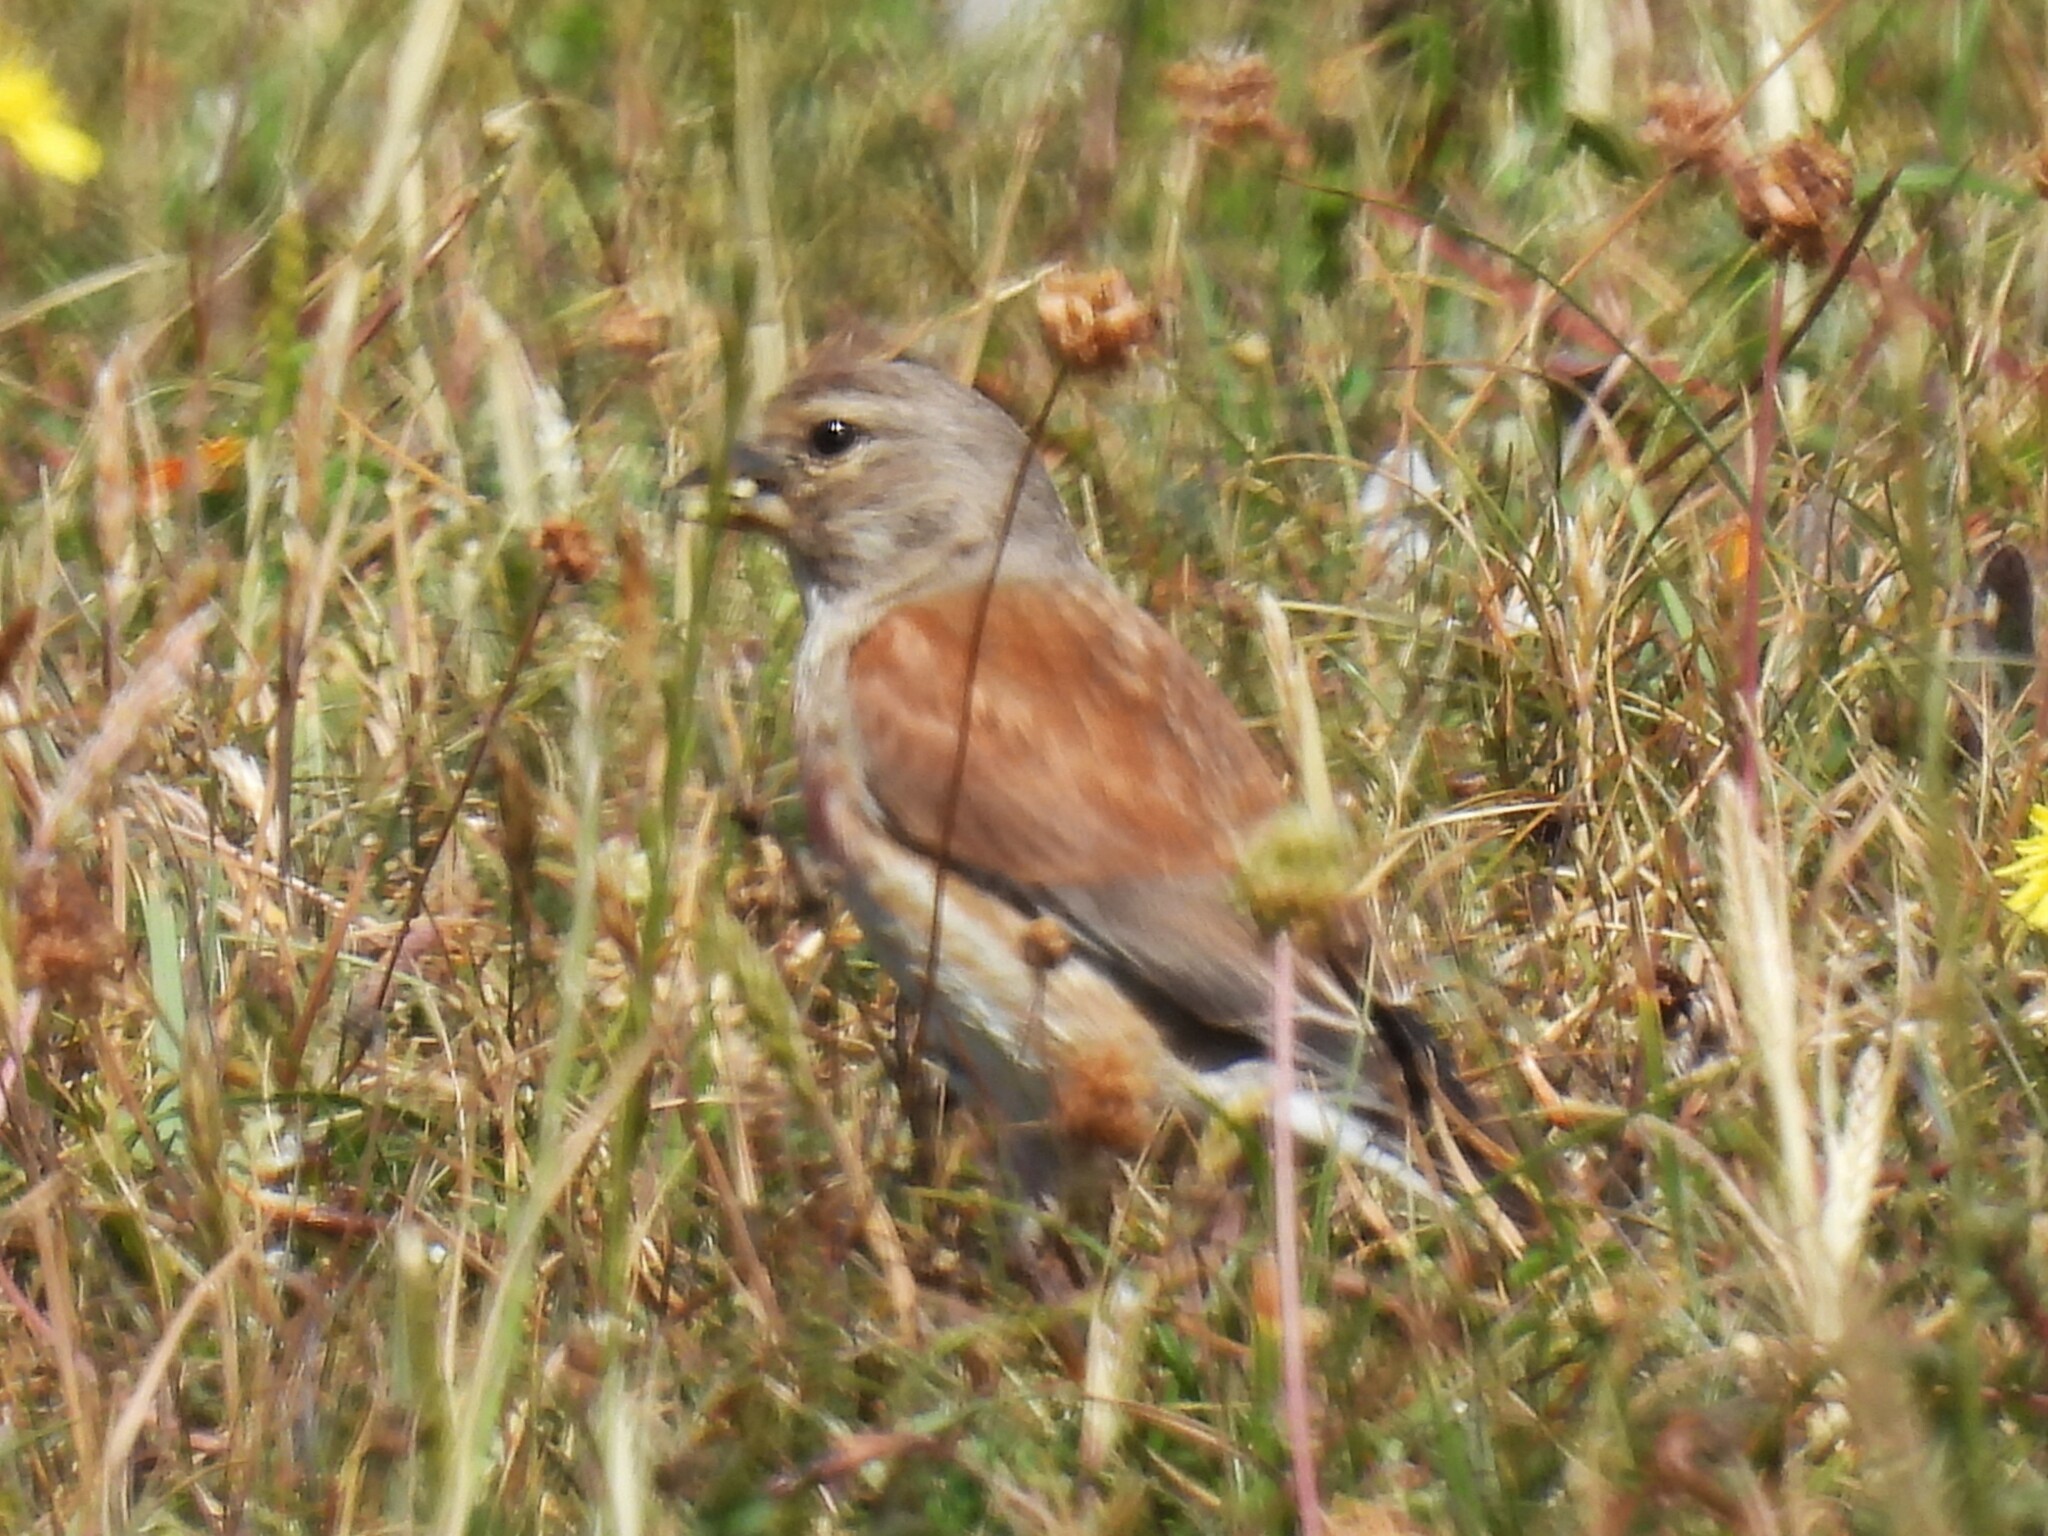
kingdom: Animalia
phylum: Chordata
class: Aves
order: Passeriformes
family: Fringillidae
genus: Linaria
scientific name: Linaria cannabina
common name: Common linnet
